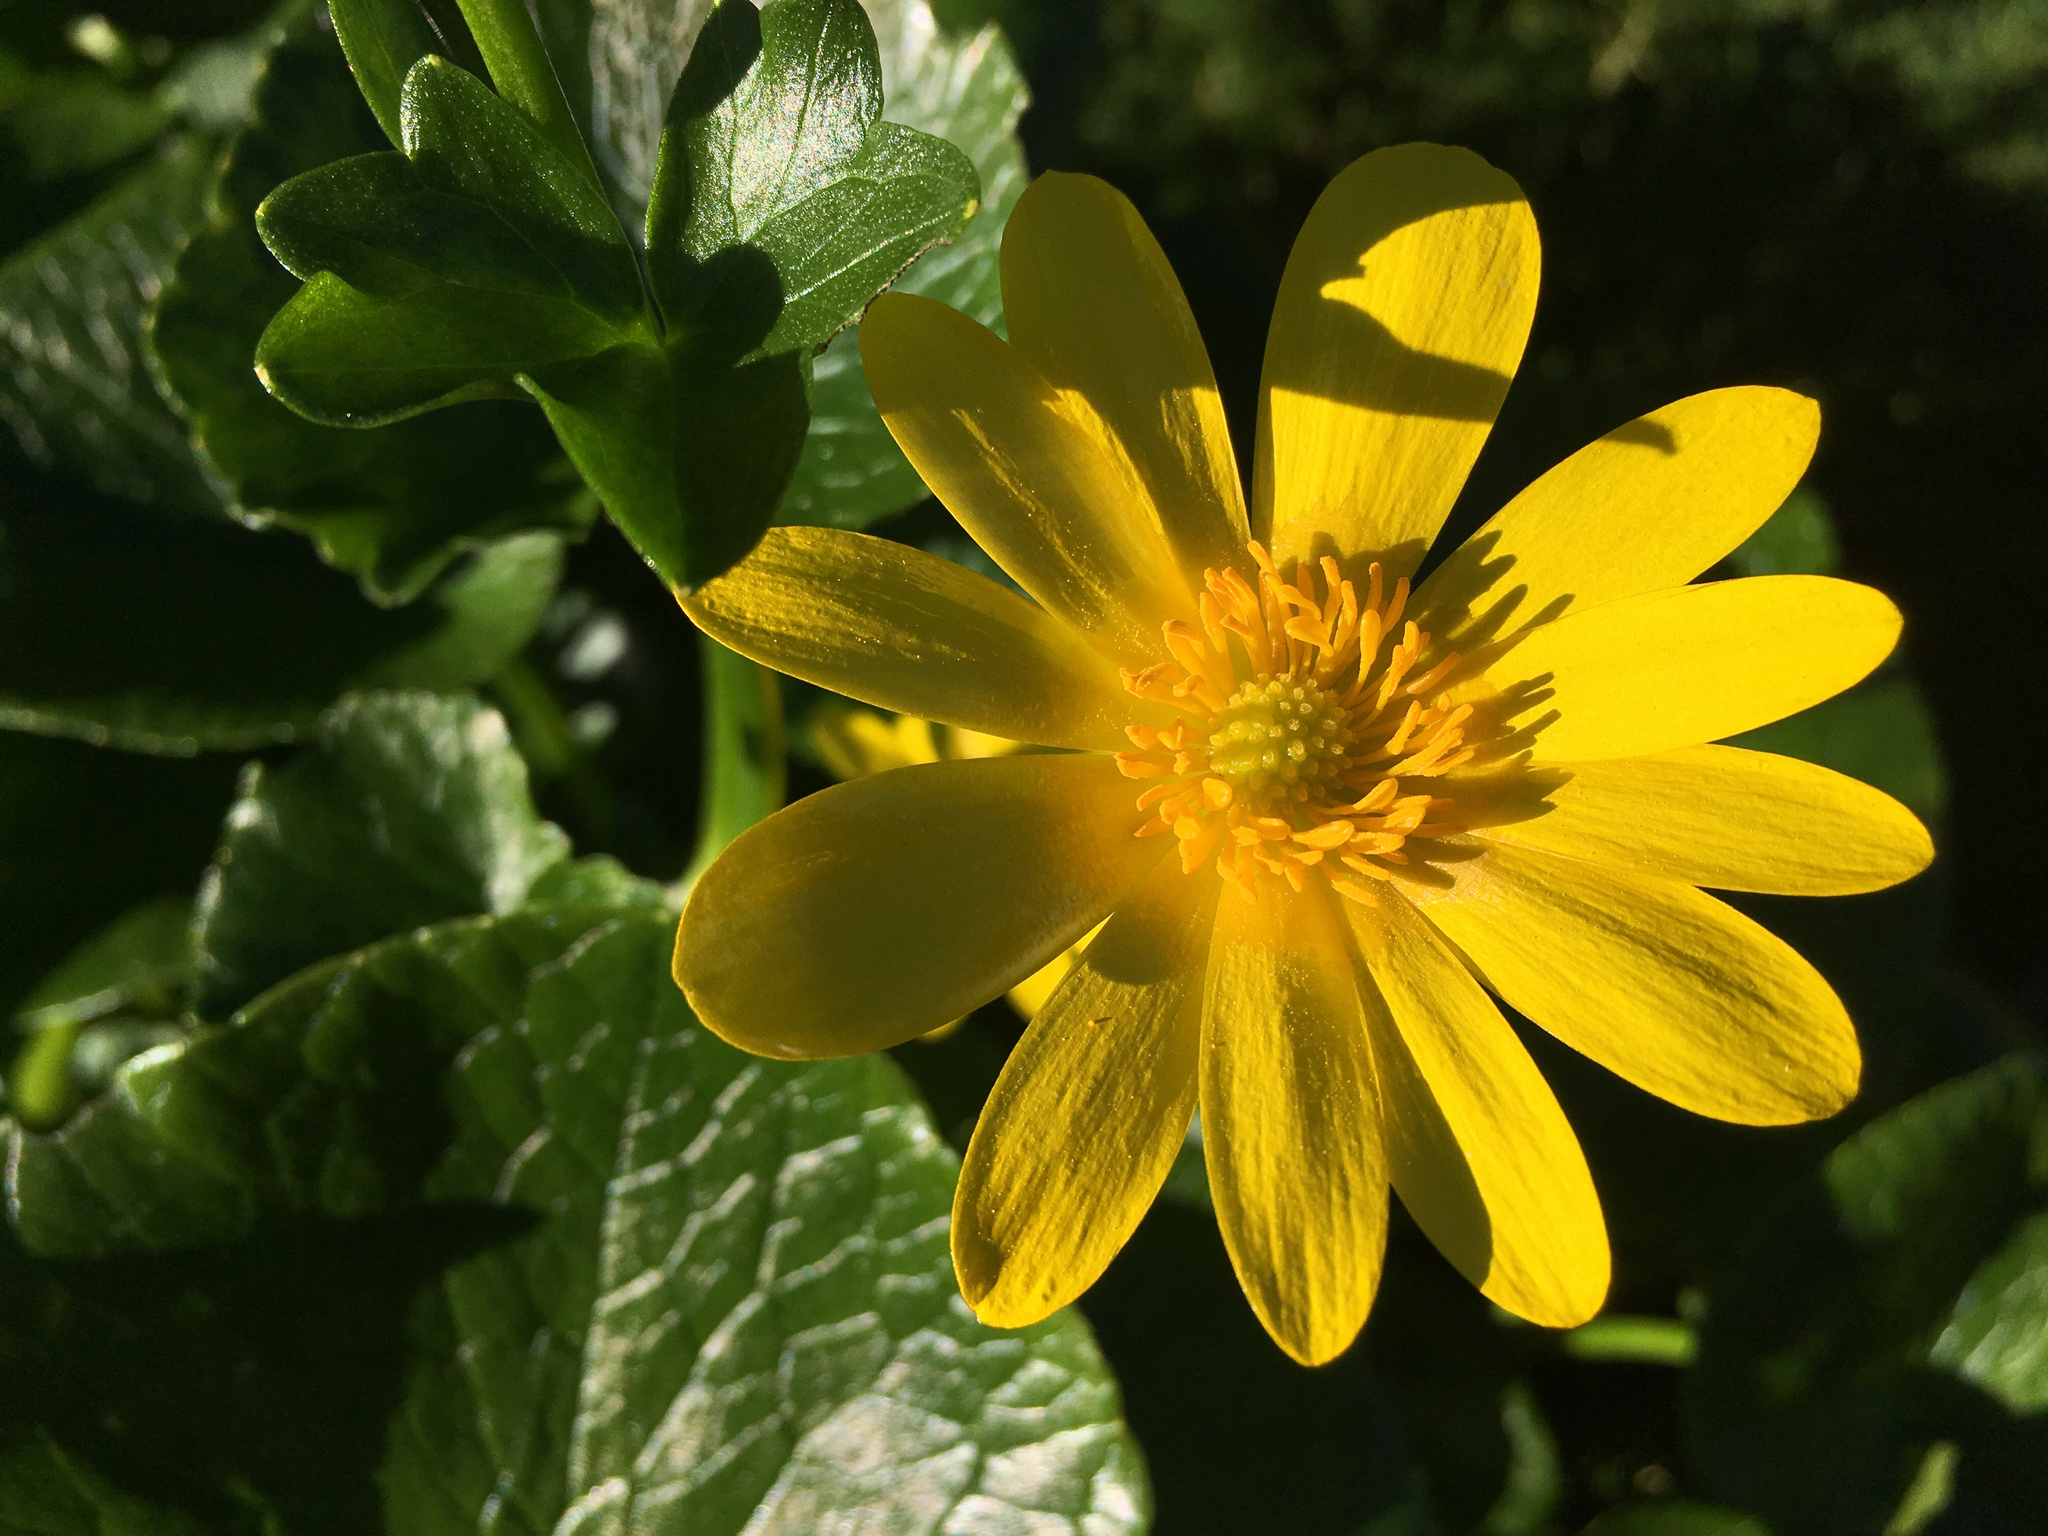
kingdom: Plantae
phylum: Tracheophyta
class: Magnoliopsida
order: Ranunculales
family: Ranunculaceae
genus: Ficaria
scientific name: Ficaria grandiflora
